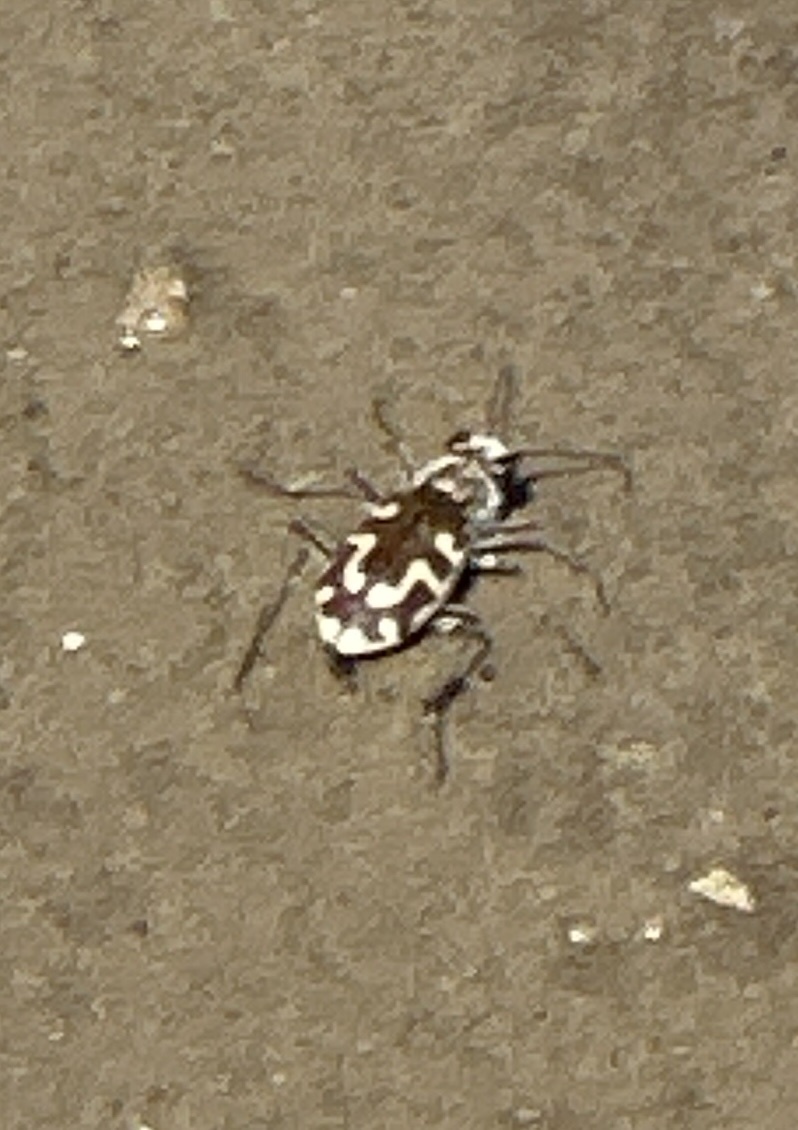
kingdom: Animalia
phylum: Arthropoda
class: Insecta
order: Coleoptera
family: Carabidae
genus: Cicindela
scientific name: Cicindela hirticollis
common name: Hairy-necked tiger beetle
